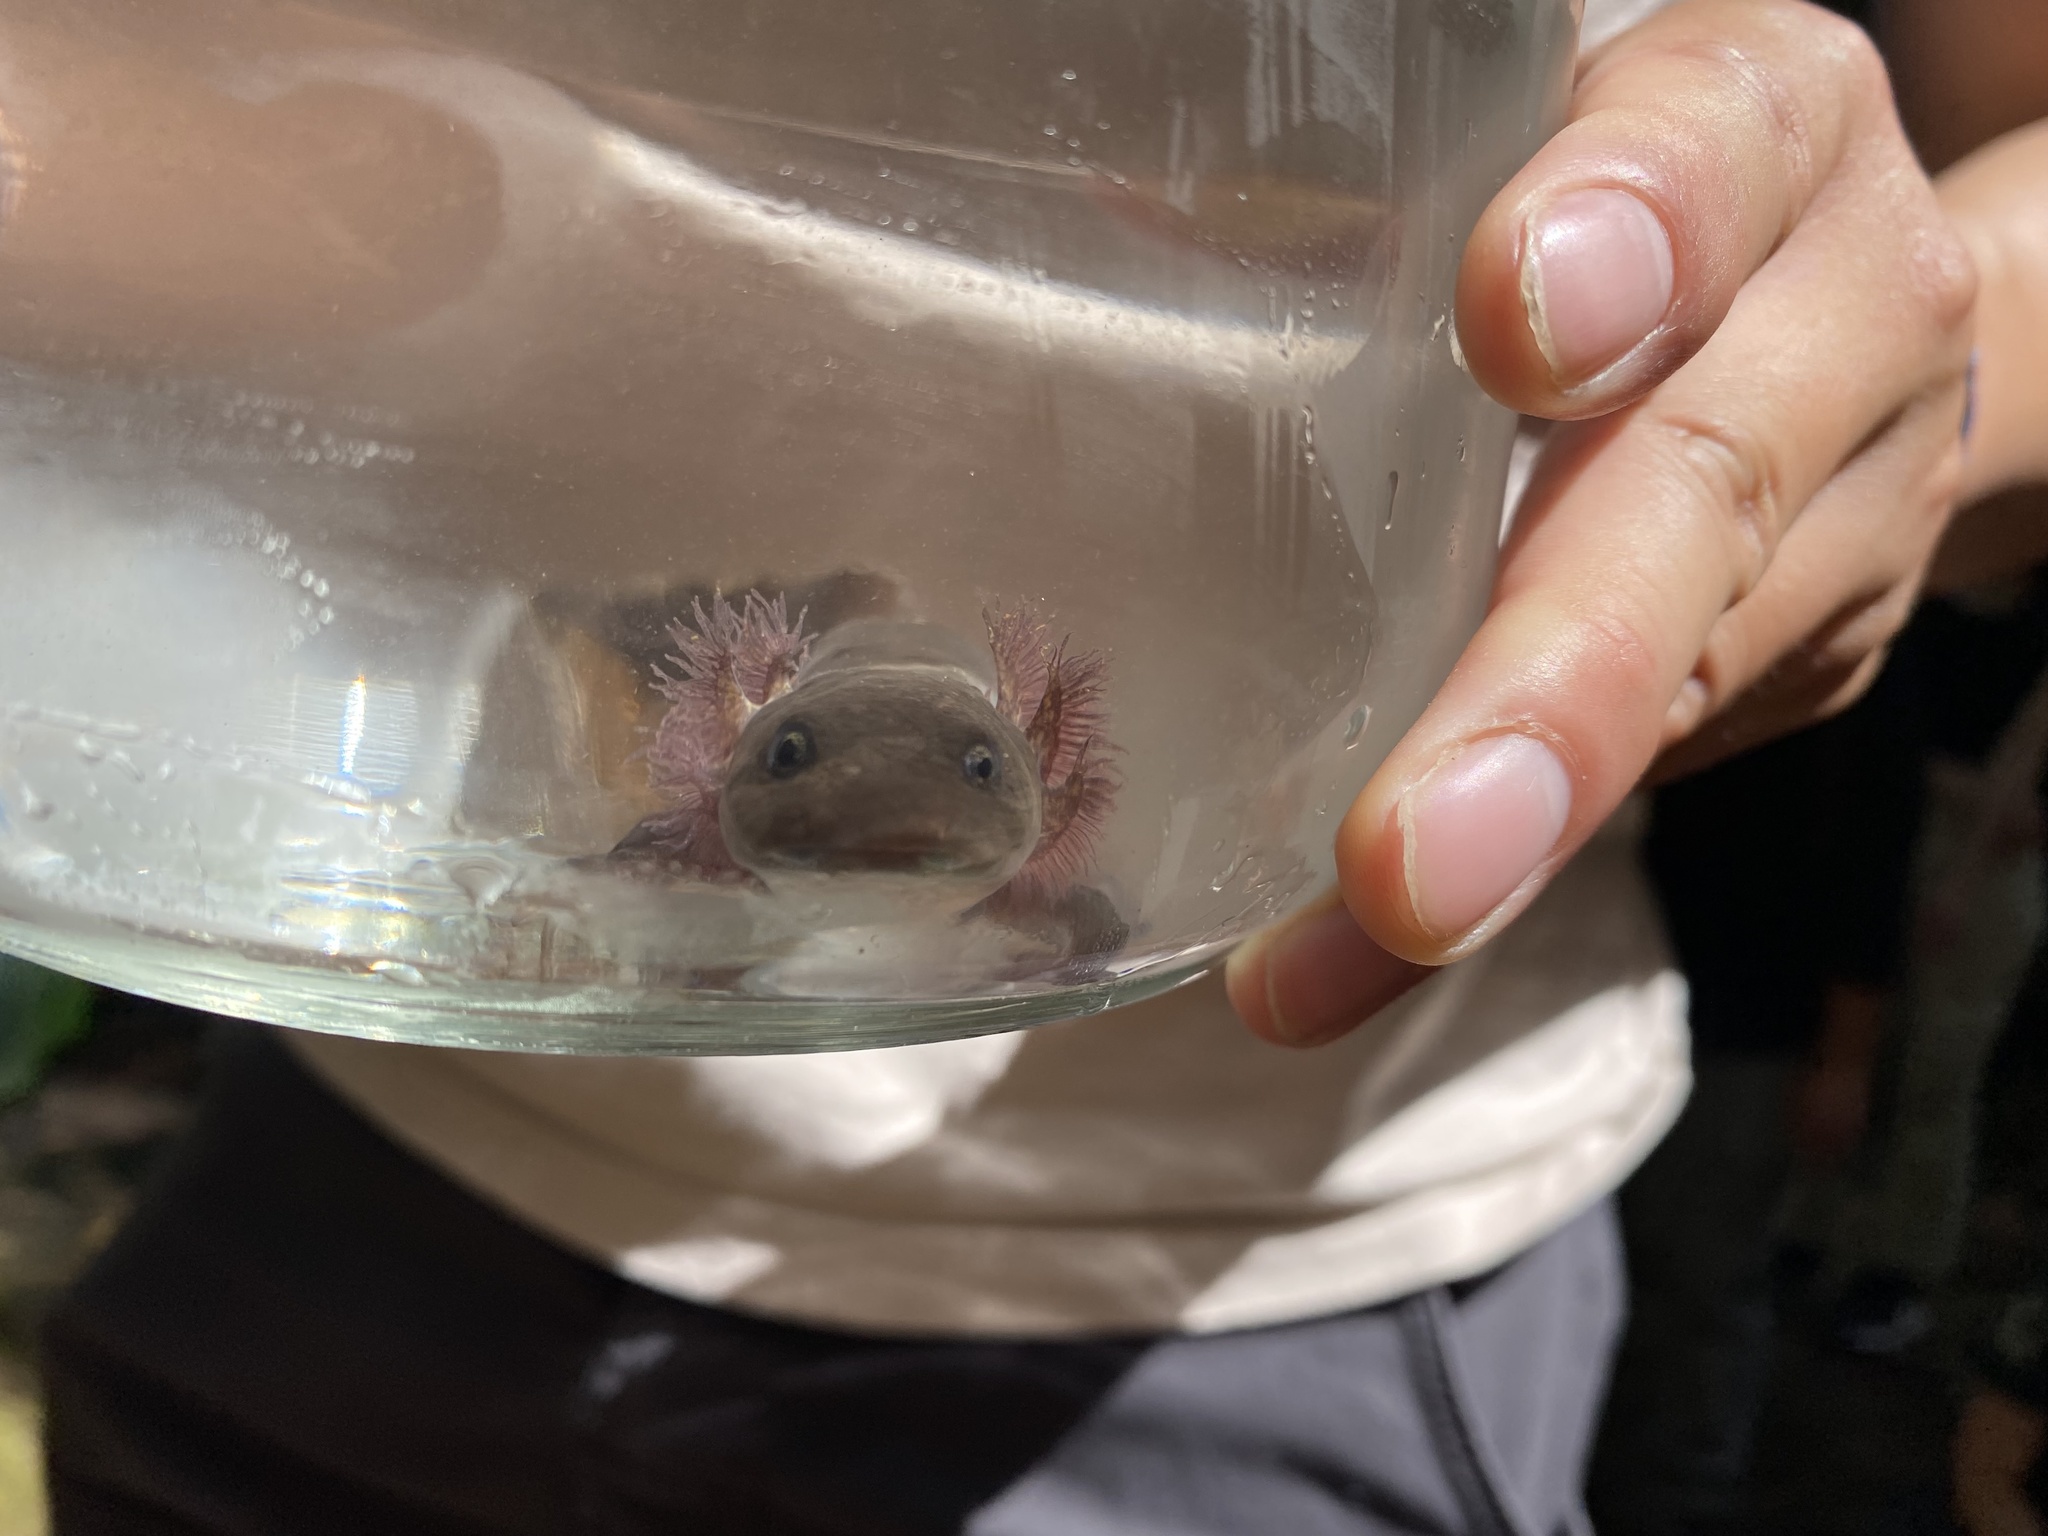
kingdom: Animalia
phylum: Chordata
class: Amphibia
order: Caudata
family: Ambystomatidae
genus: Dicamptodon
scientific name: Dicamptodon ensatus
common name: California giant salamander
